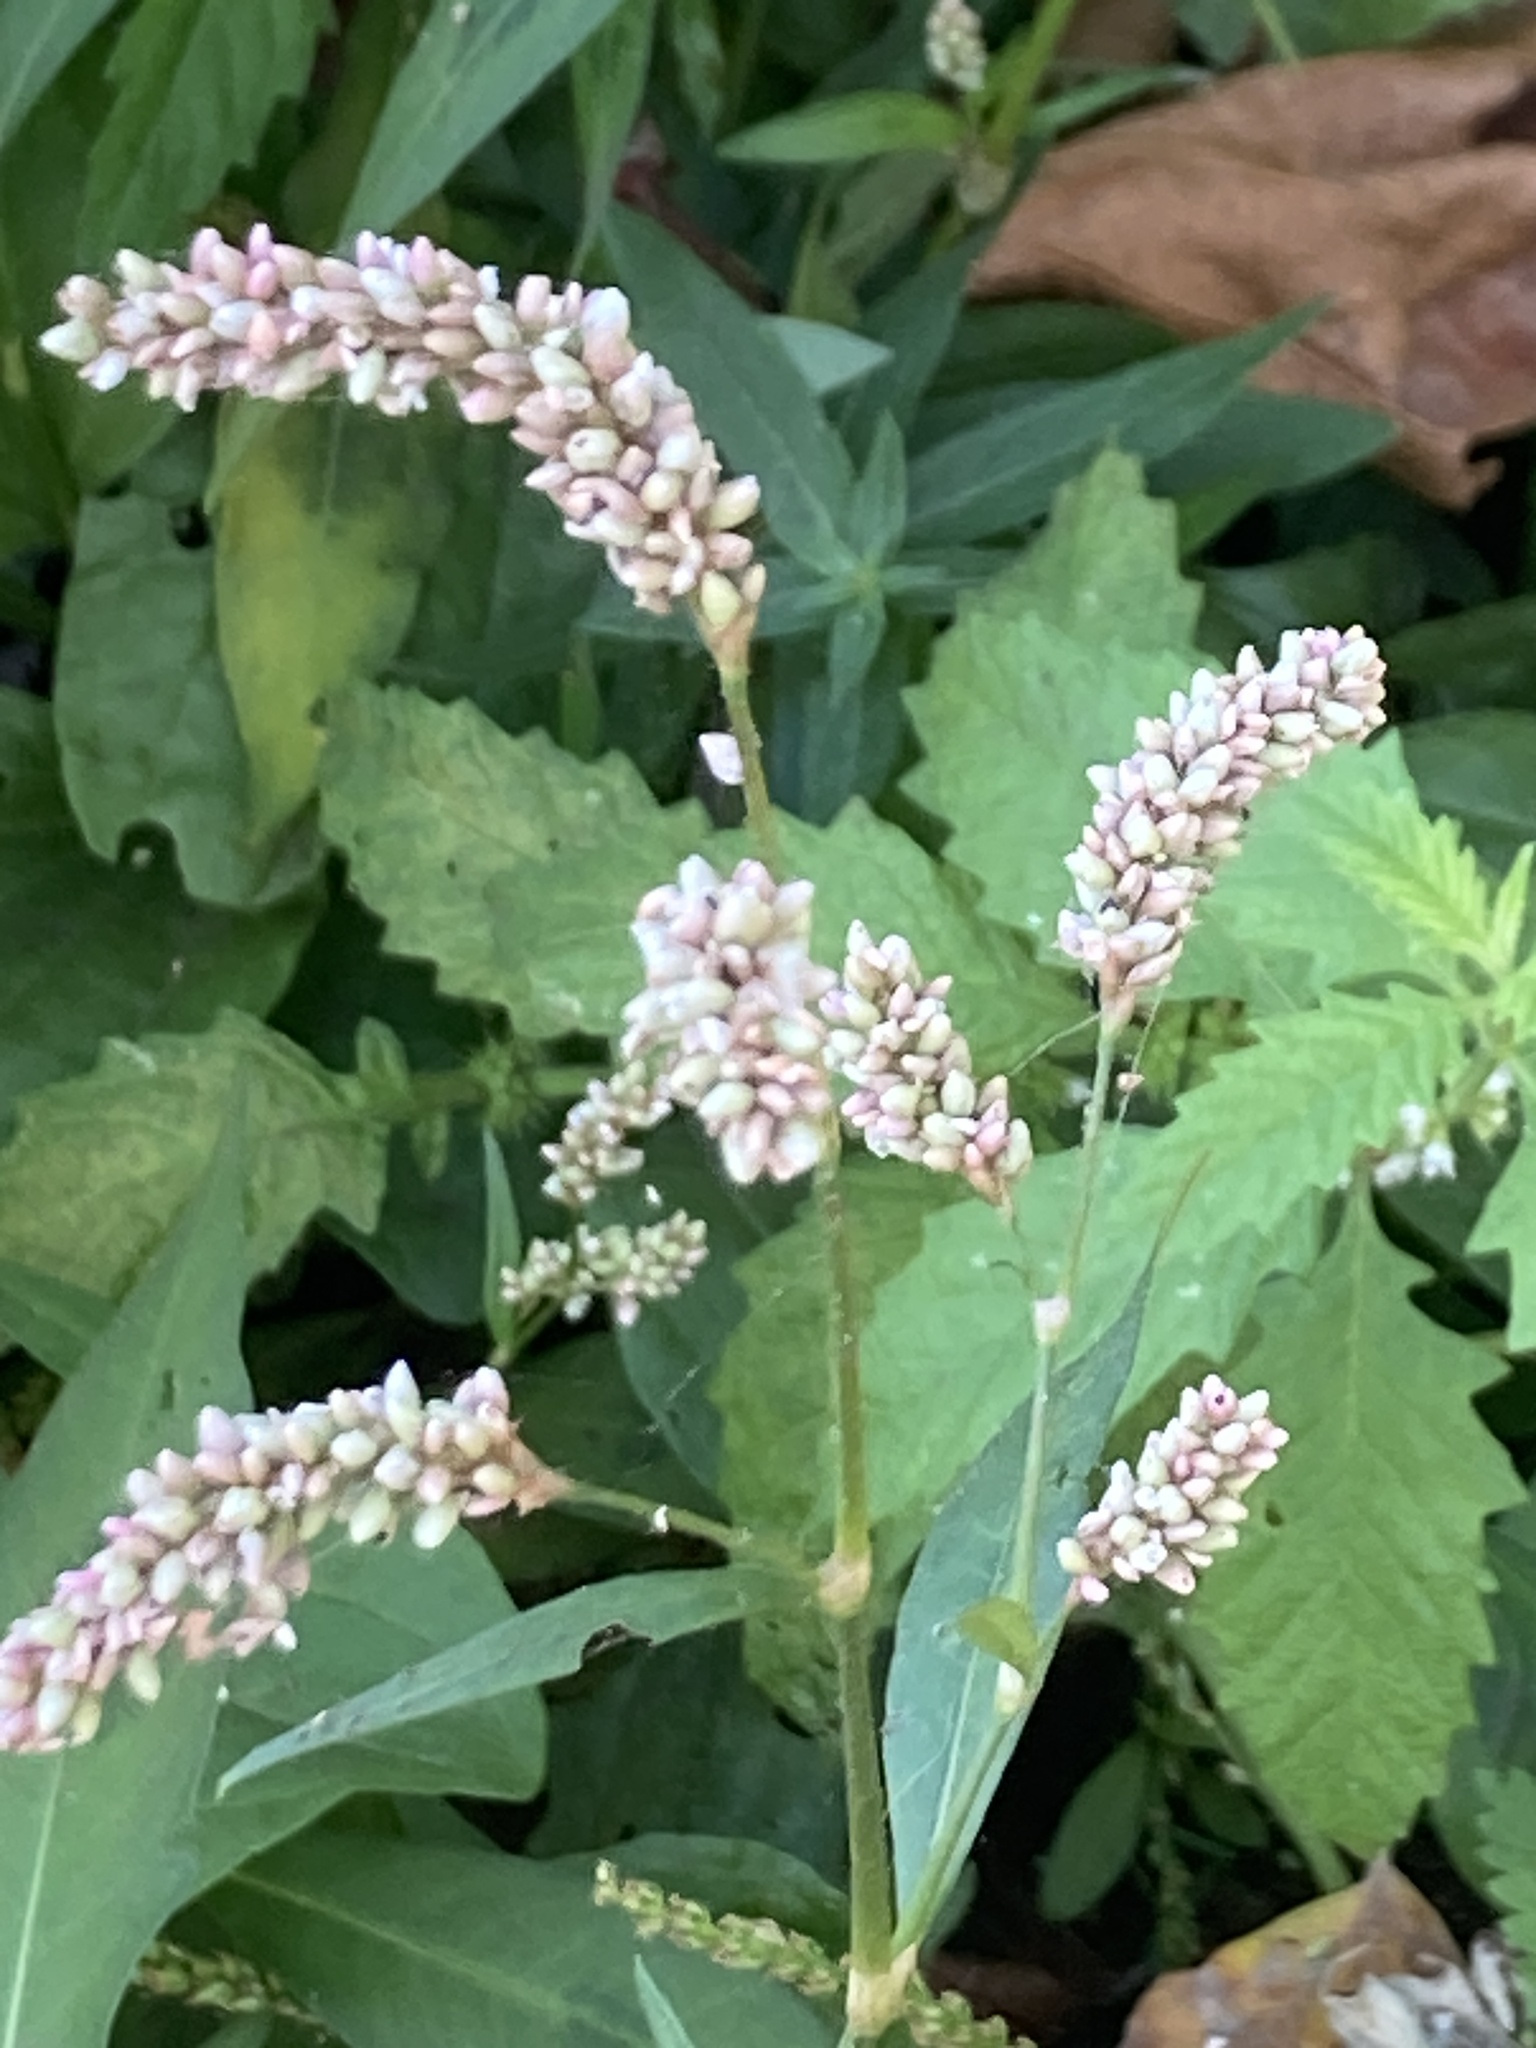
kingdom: Plantae
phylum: Tracheophyta
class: Magnoliopsida
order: Caryophyllales
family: Polygonaceae
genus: Persicaria
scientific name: Persicaria maculosa
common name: Redshank
